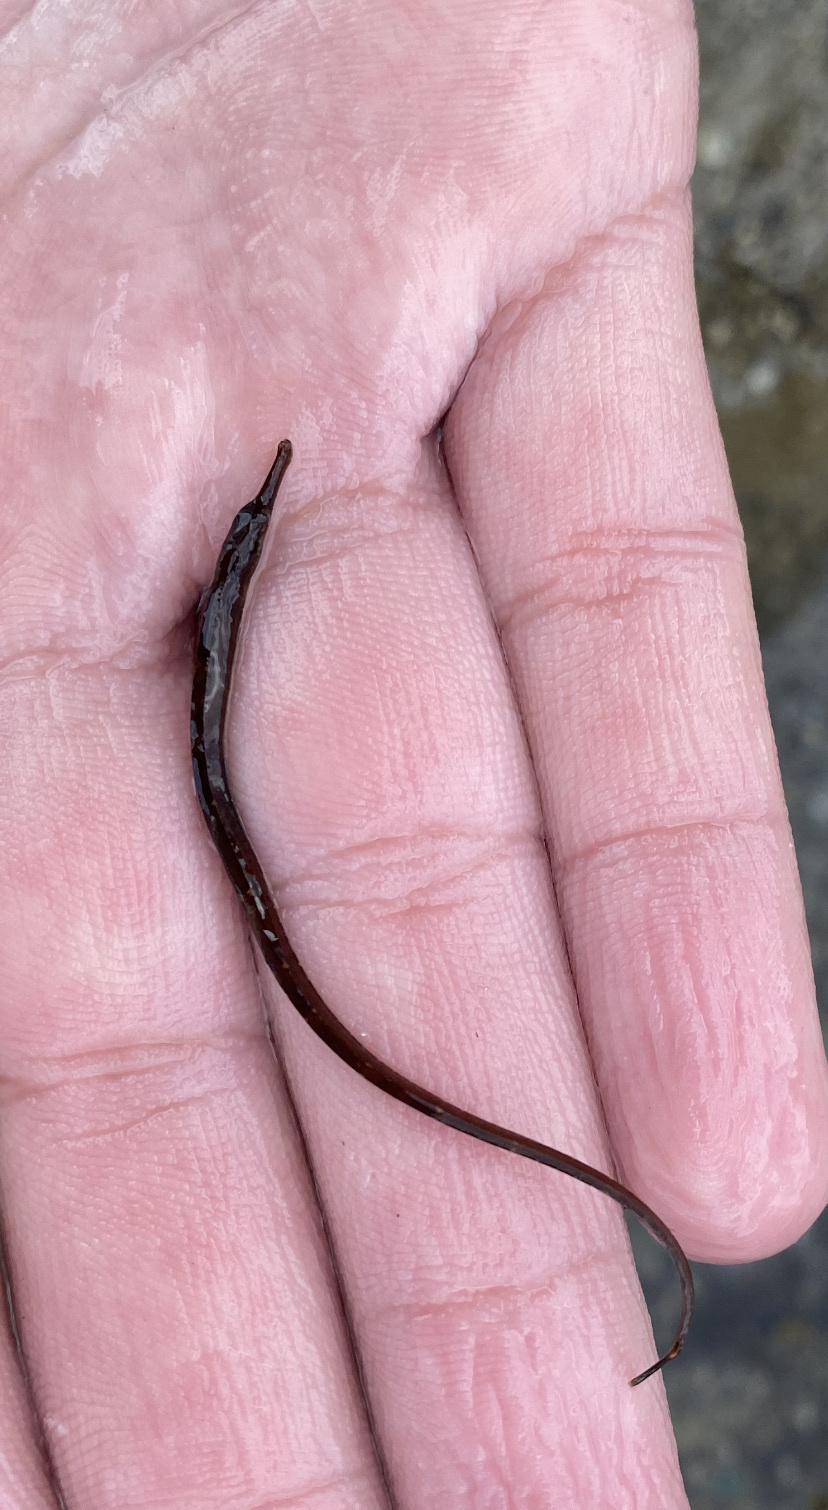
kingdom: Animalia
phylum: Chordata
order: Syngnathiformes
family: Syngnathidae
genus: Syngnathus
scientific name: Syngnathus fuscus
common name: Northern pipefish
